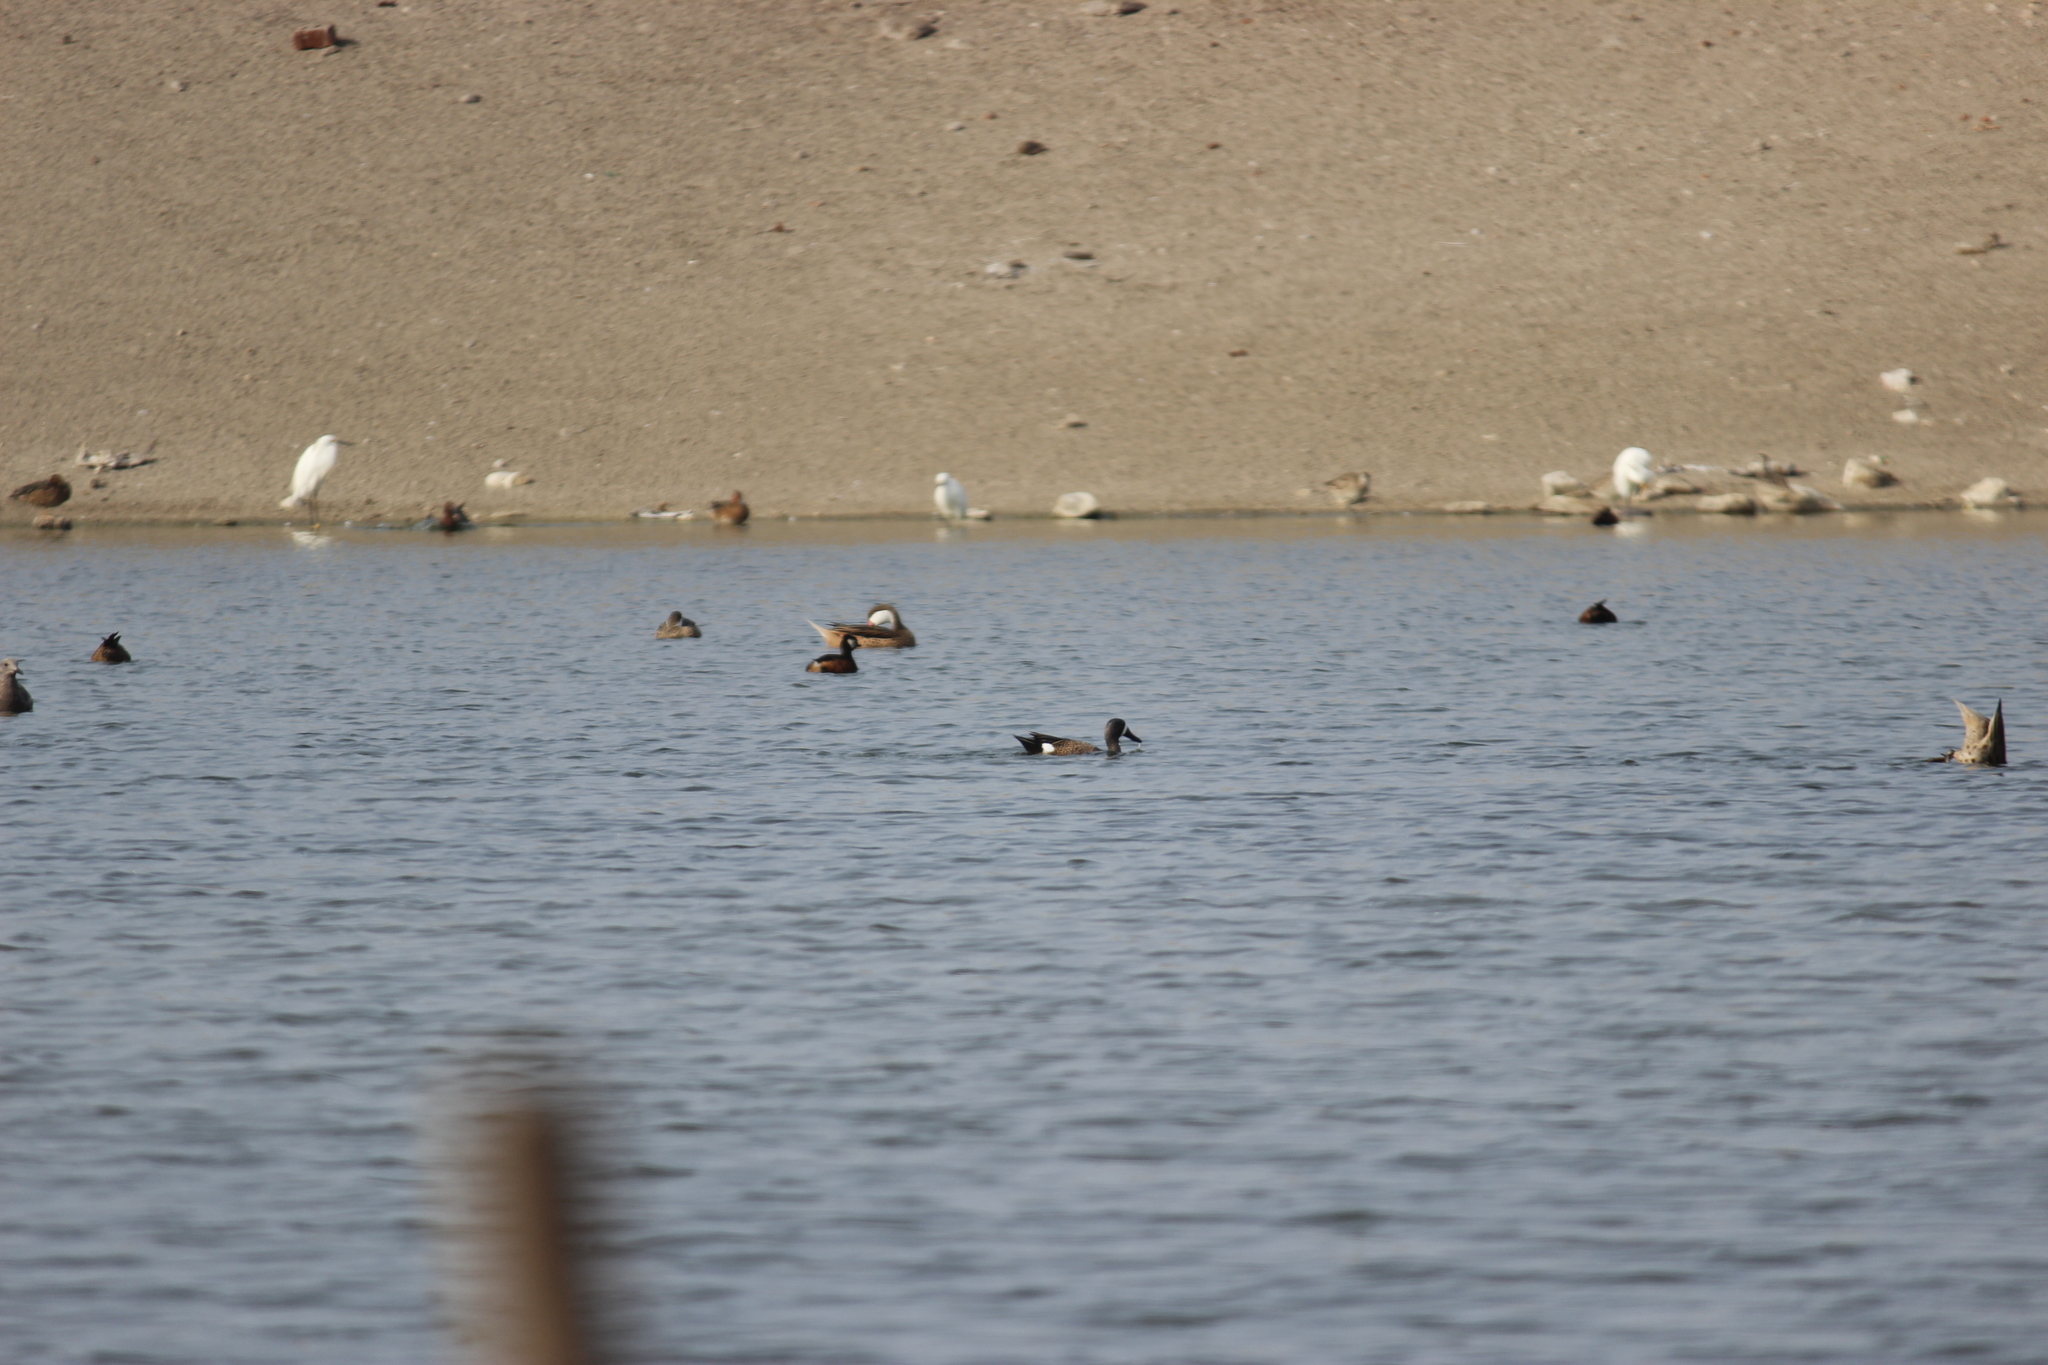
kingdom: Animalia
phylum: Chordata
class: Aves
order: Podicipediformes
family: Podicipedidae
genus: Rollandia
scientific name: Rollandia rolland
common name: White-tufted grebe
